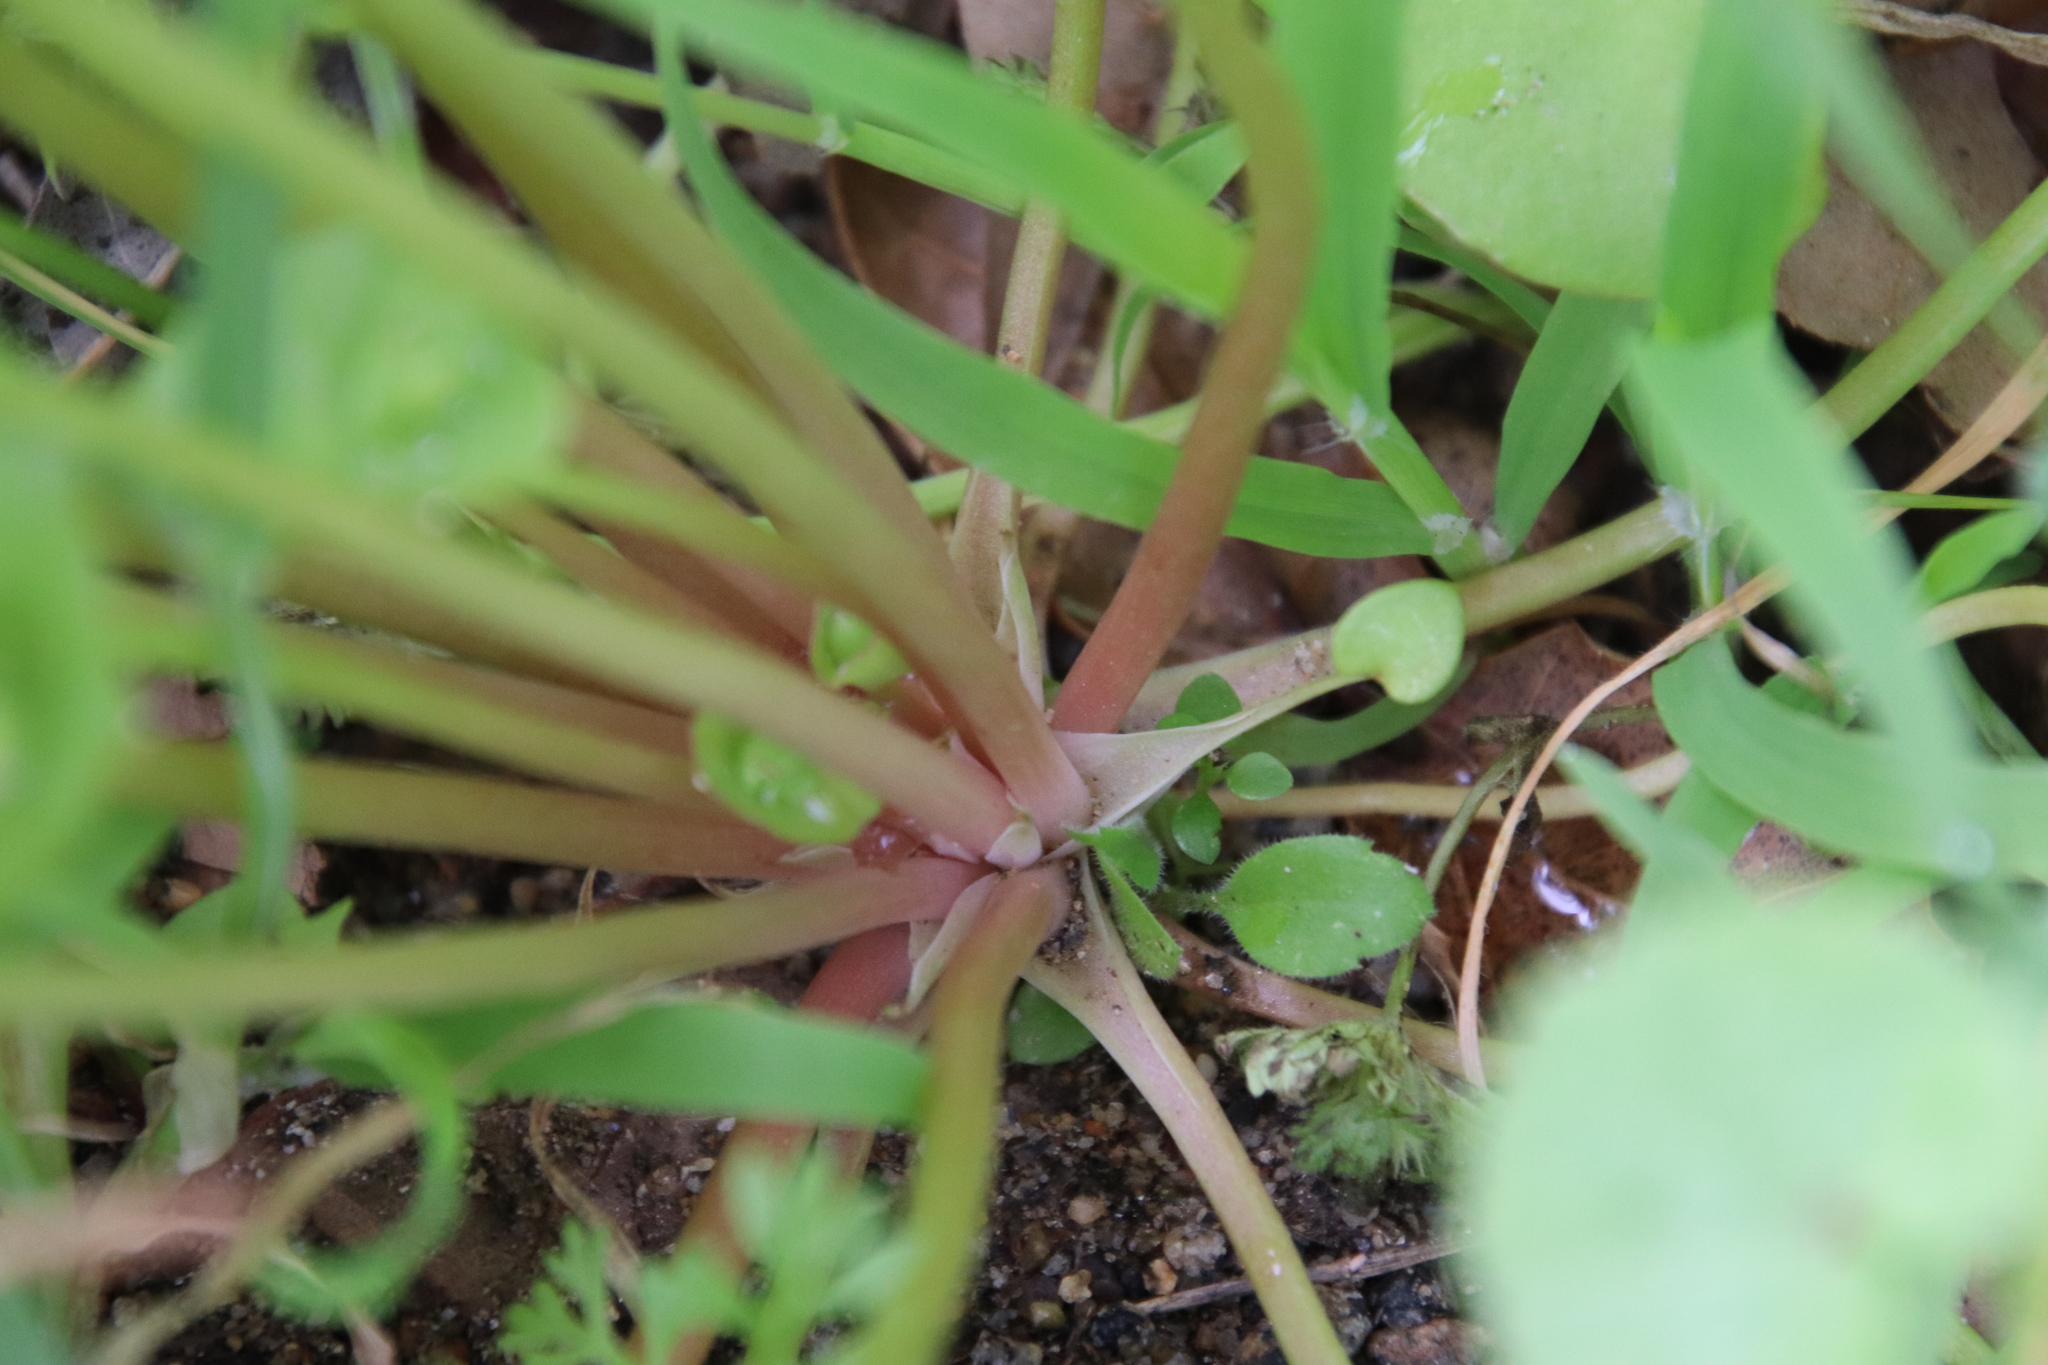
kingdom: Plantae
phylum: Tracheophyta
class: Magnoliopsida
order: Caryophyllales
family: Montiaceae
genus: Claytonia
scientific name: Claytonia perfoliata
